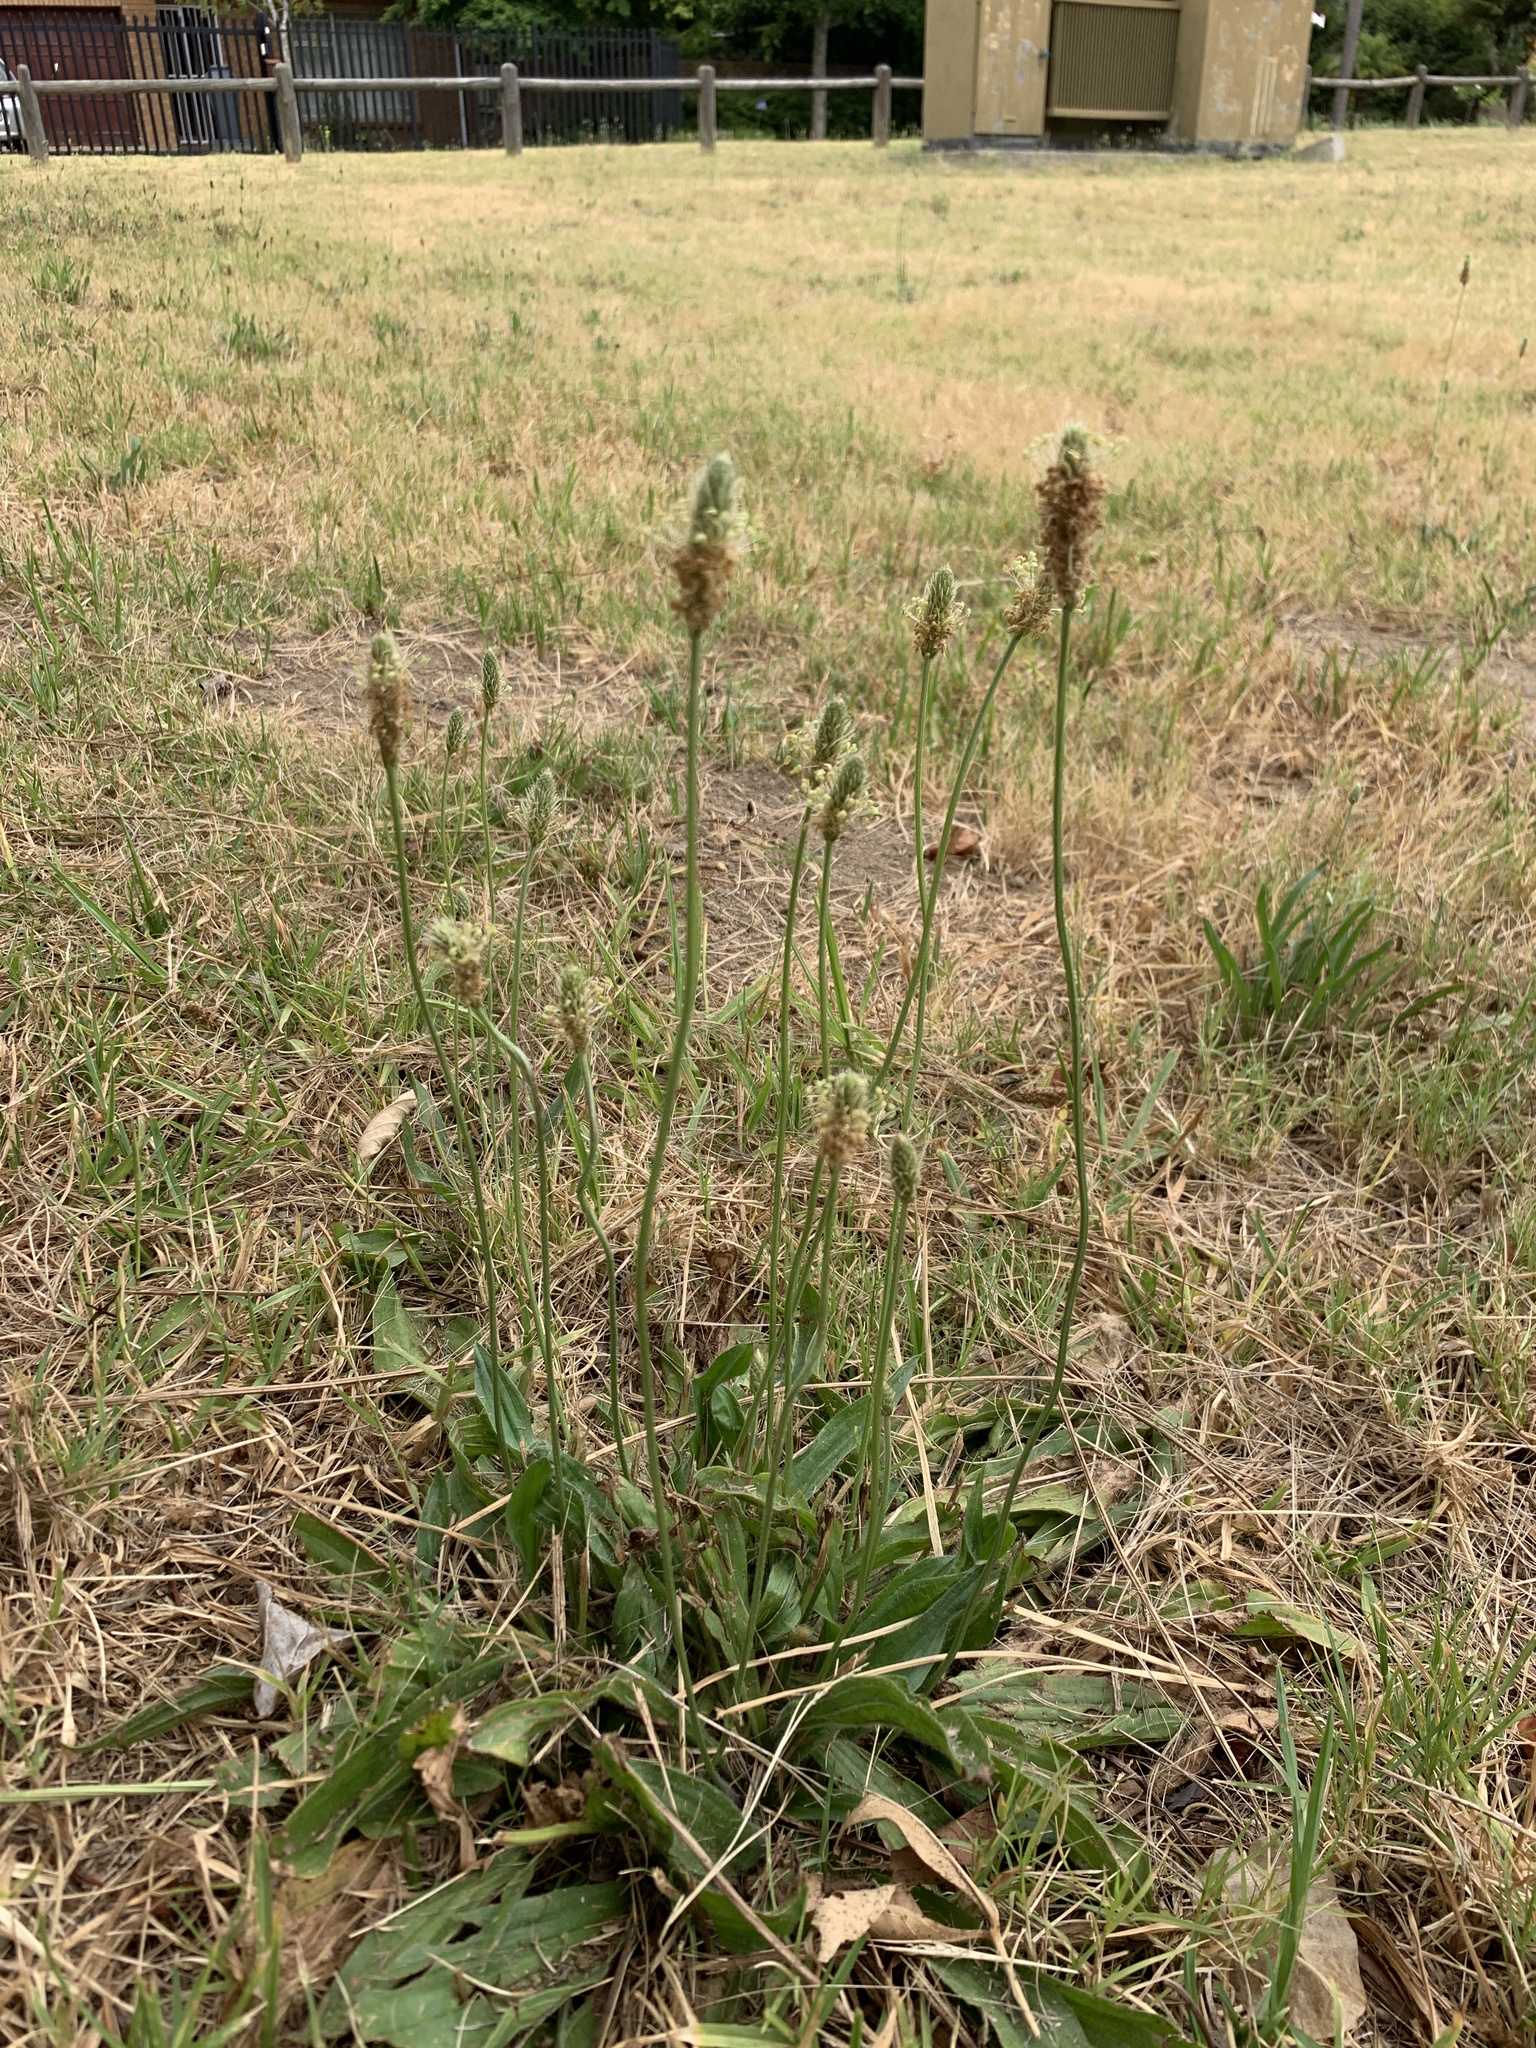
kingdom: Plantae
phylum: Tracheophyta
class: Magnoliopsida
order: Lamiales
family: Plantaginaceae
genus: Plantago
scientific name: Plantago lanceolata
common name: Ribwort plantain
